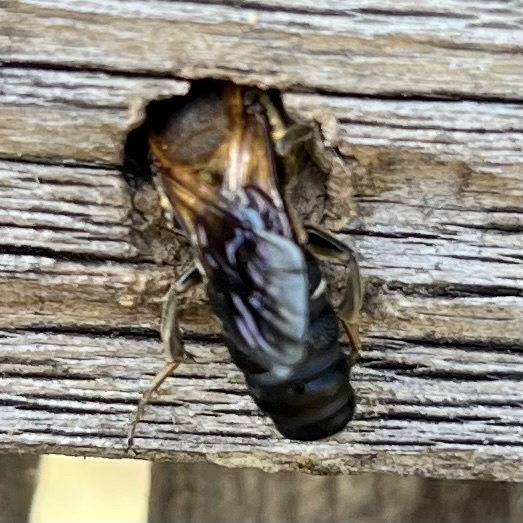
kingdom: Animalia
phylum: Arthropoda
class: Insecta
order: Hymenoptera
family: Megachilidae
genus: Megachile
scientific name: Megachile sculpturalis
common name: Sculptured resin bee
